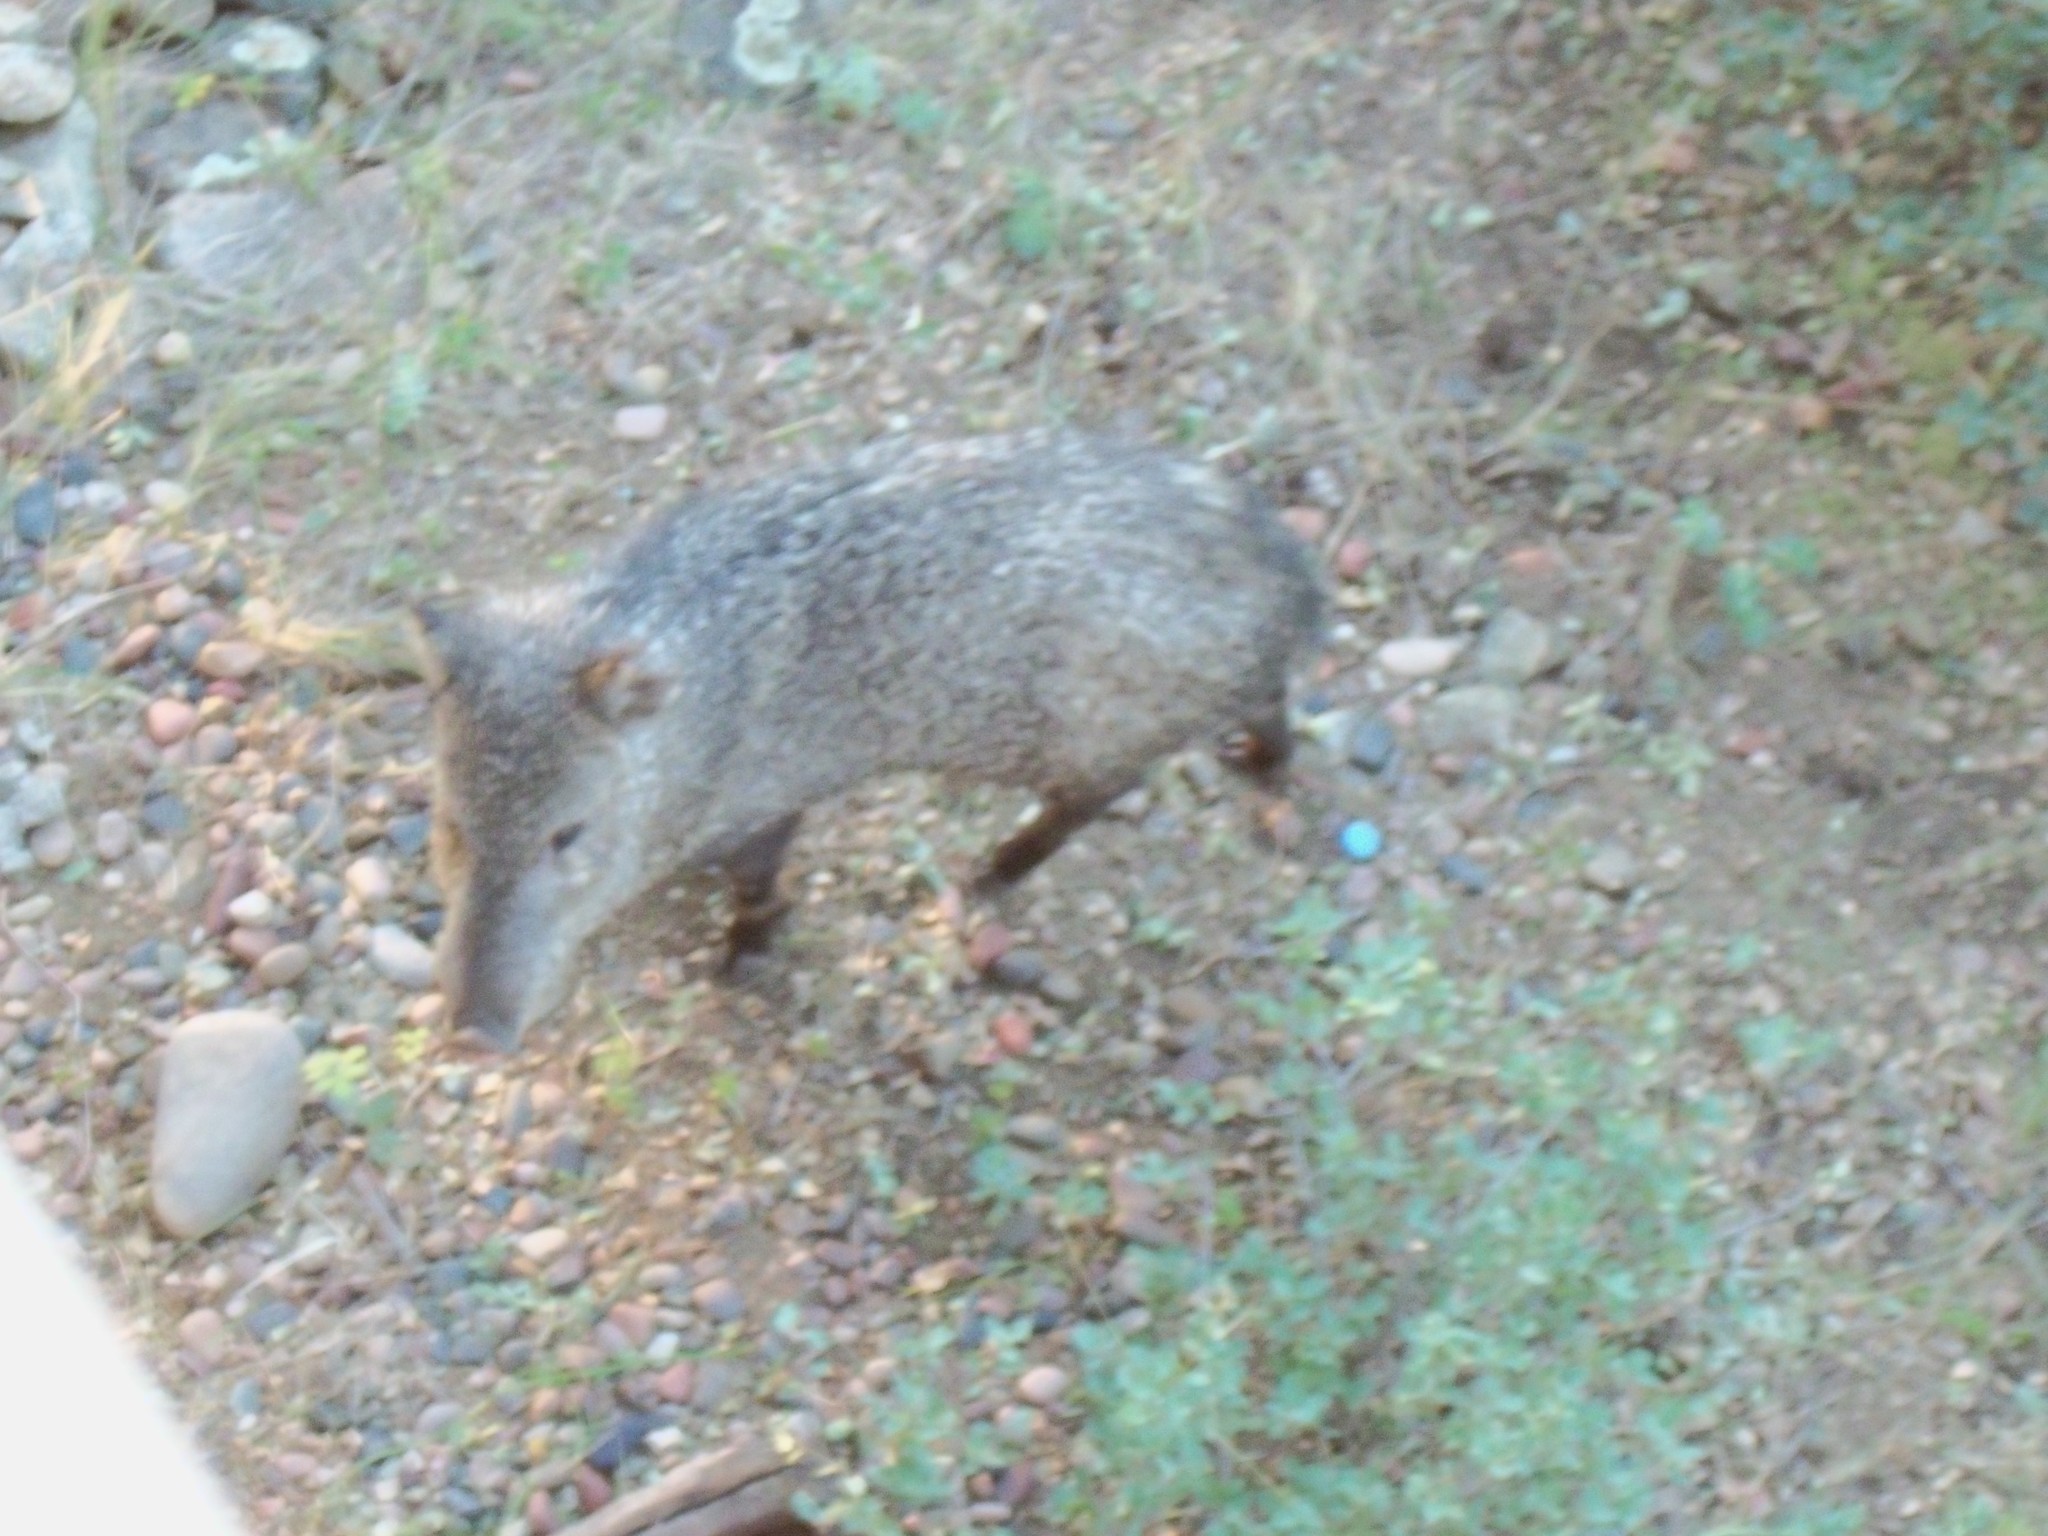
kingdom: Animalia
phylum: Chordata
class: Mammalia
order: Artiodactyla
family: Tayassuidae
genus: Pecari
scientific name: Pecari tajacu
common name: Collared peccary
